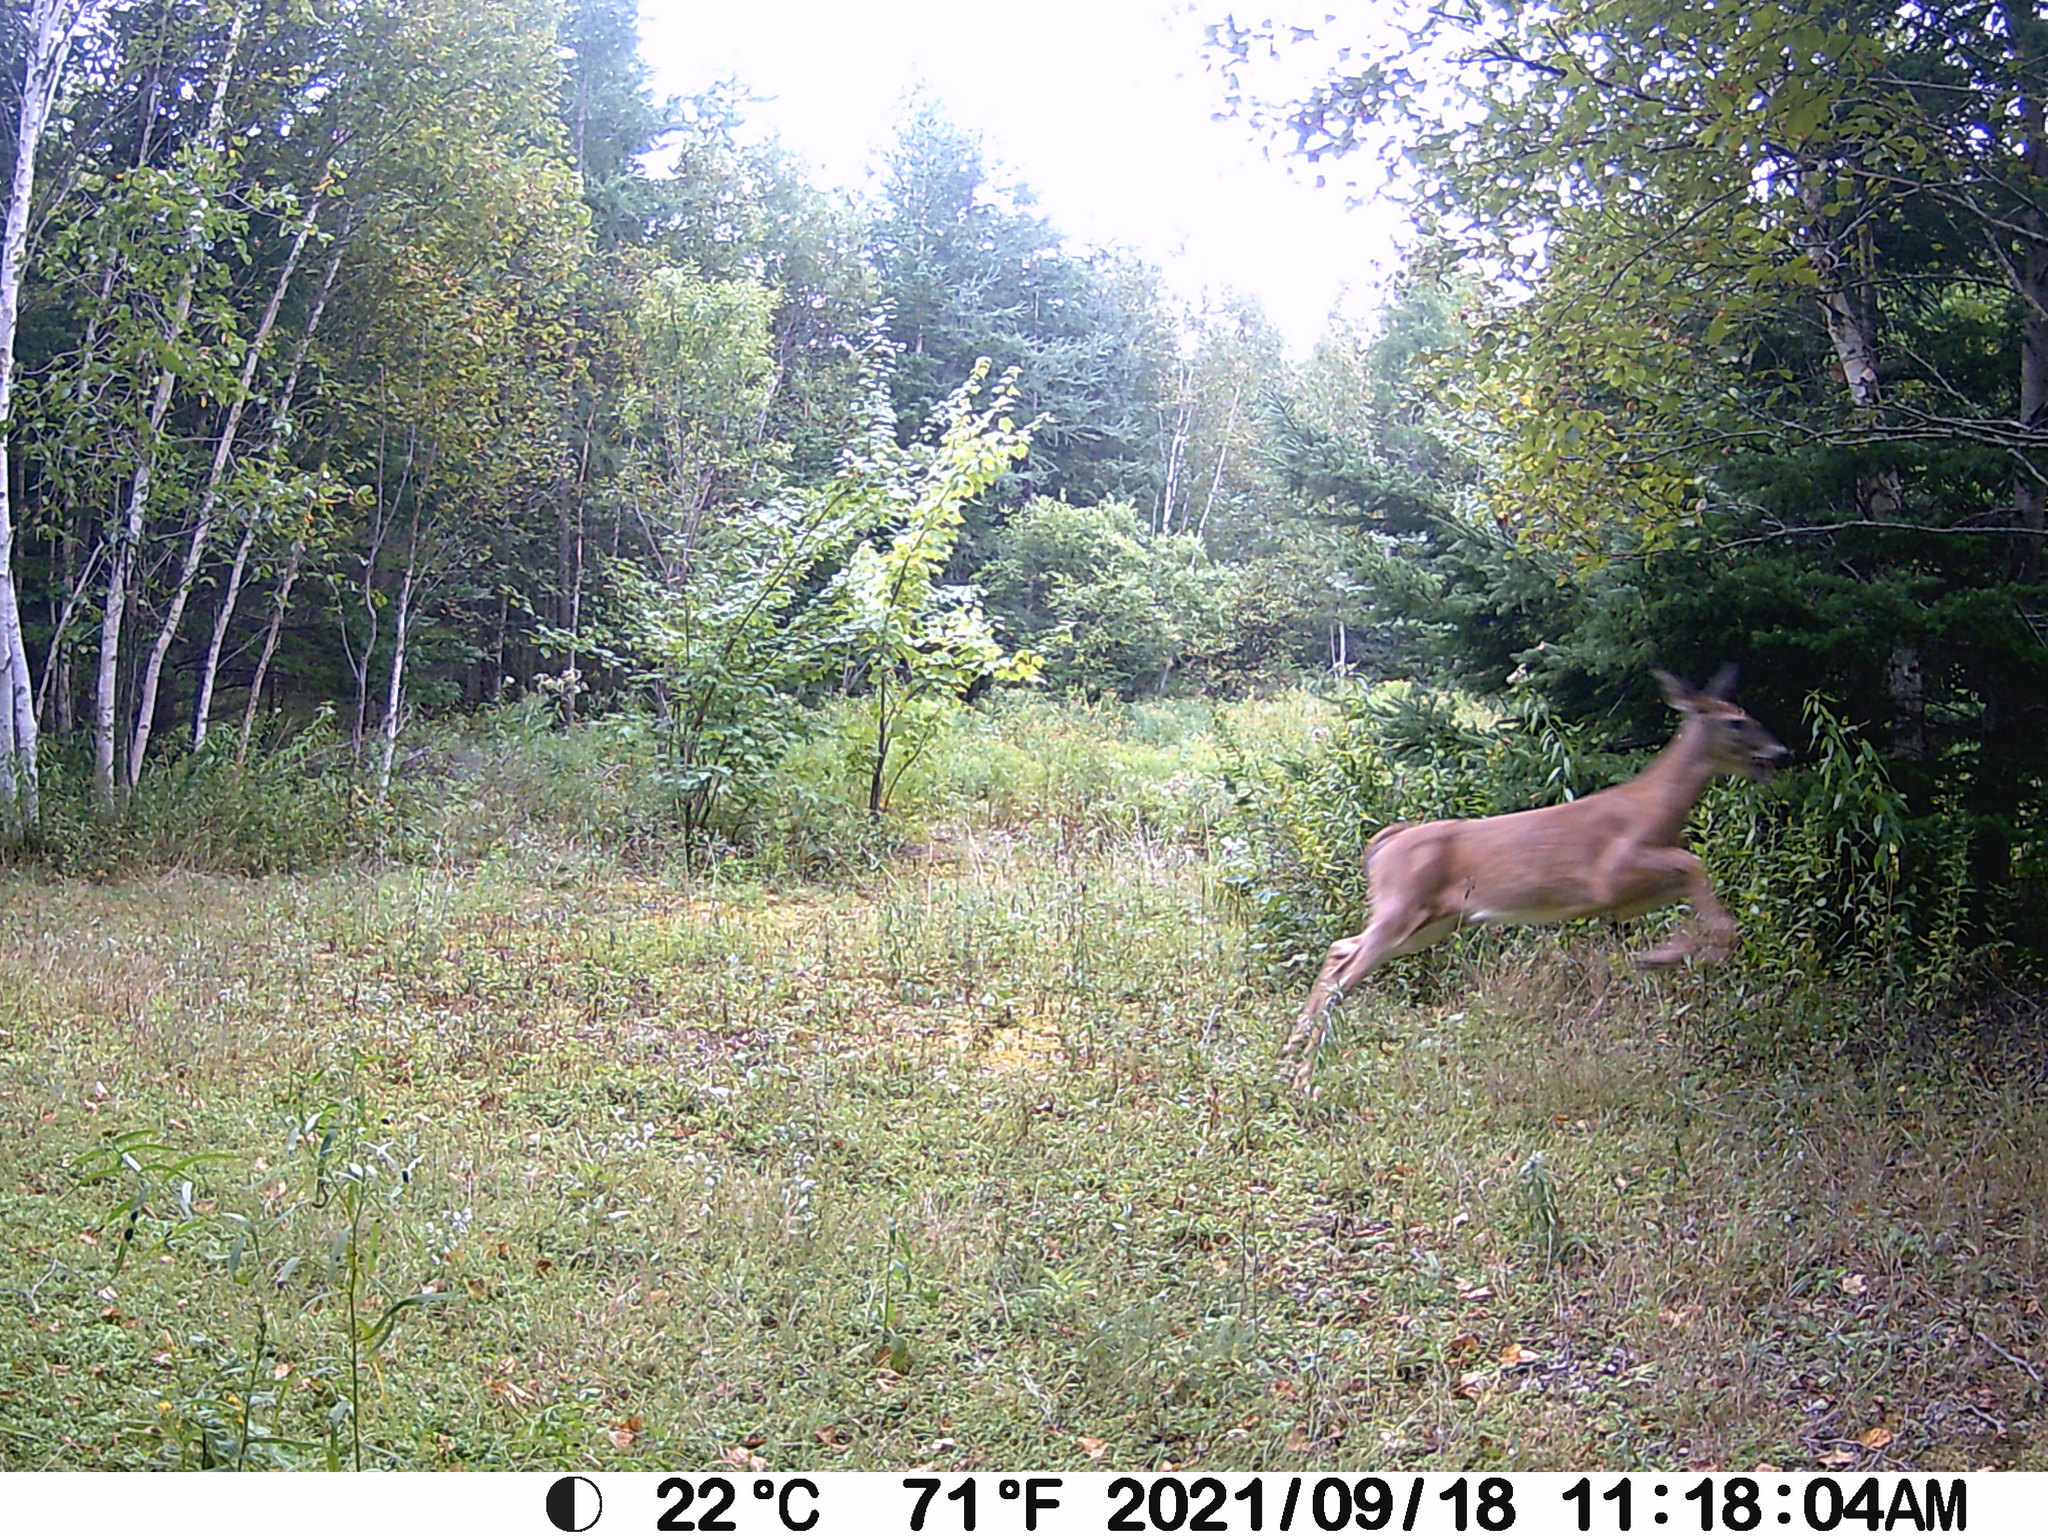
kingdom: Animalia
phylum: Chordata
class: Mammalia
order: Artiodactyla
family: Cervidae
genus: Odocoileus
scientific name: Odocoileus virginianus
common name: White-tailed deer
